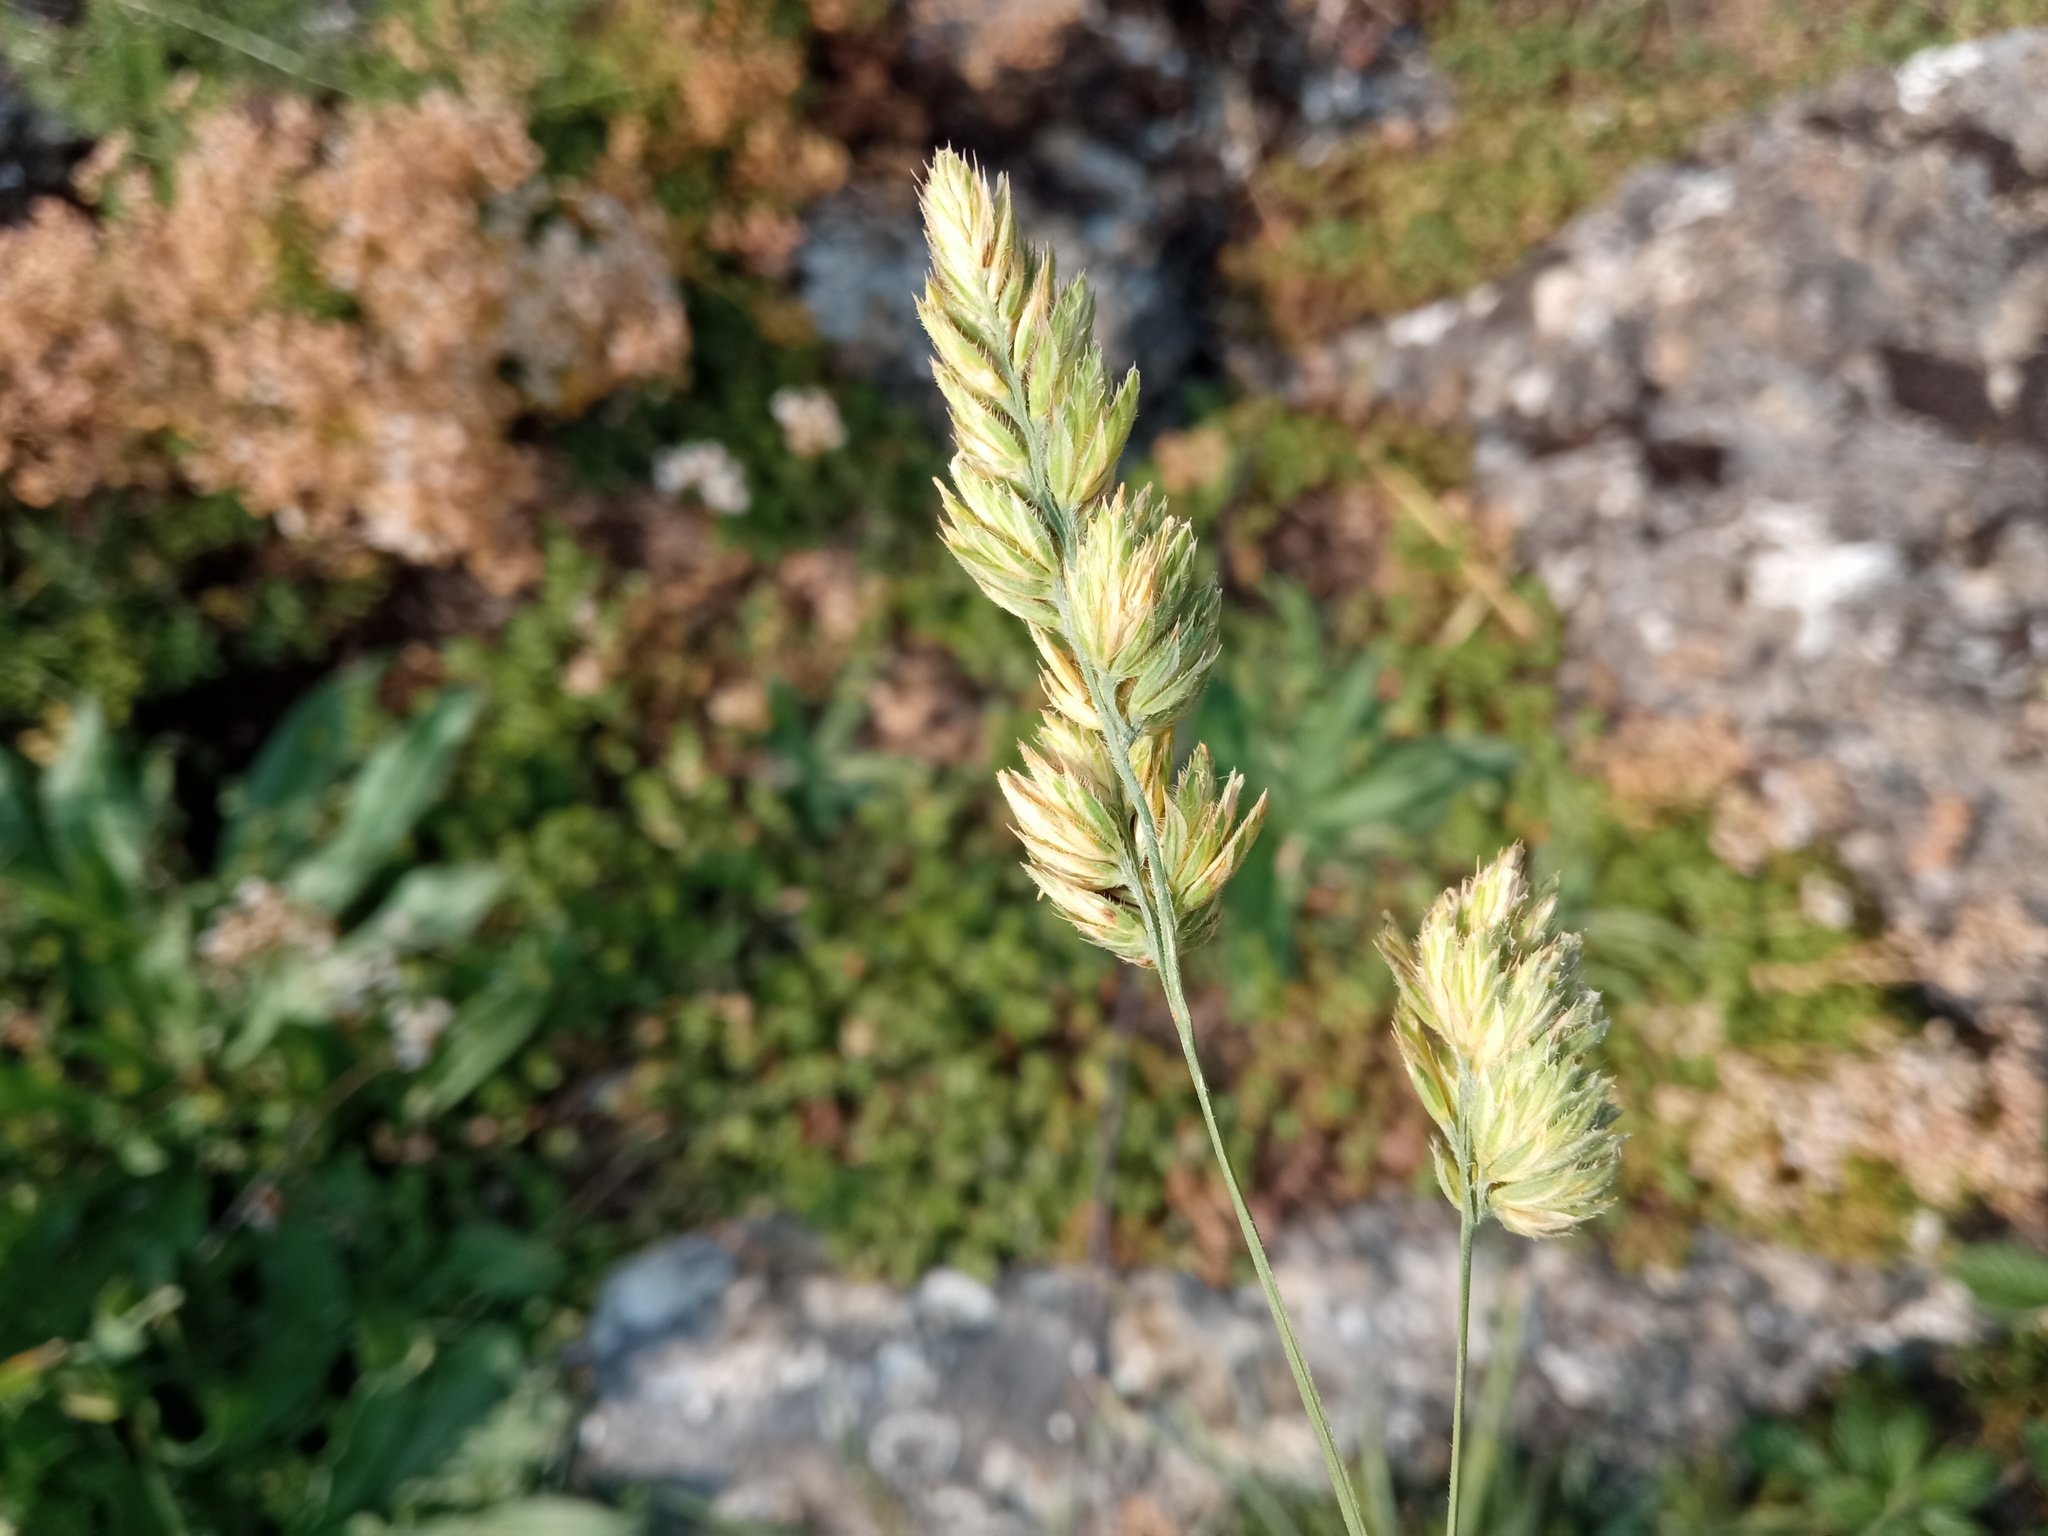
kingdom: Plantae
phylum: Tracheophyta
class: Liliopsida
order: Poales
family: Poaceae
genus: Dactylis
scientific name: Dactylis glomerata
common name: Orchardgrass
